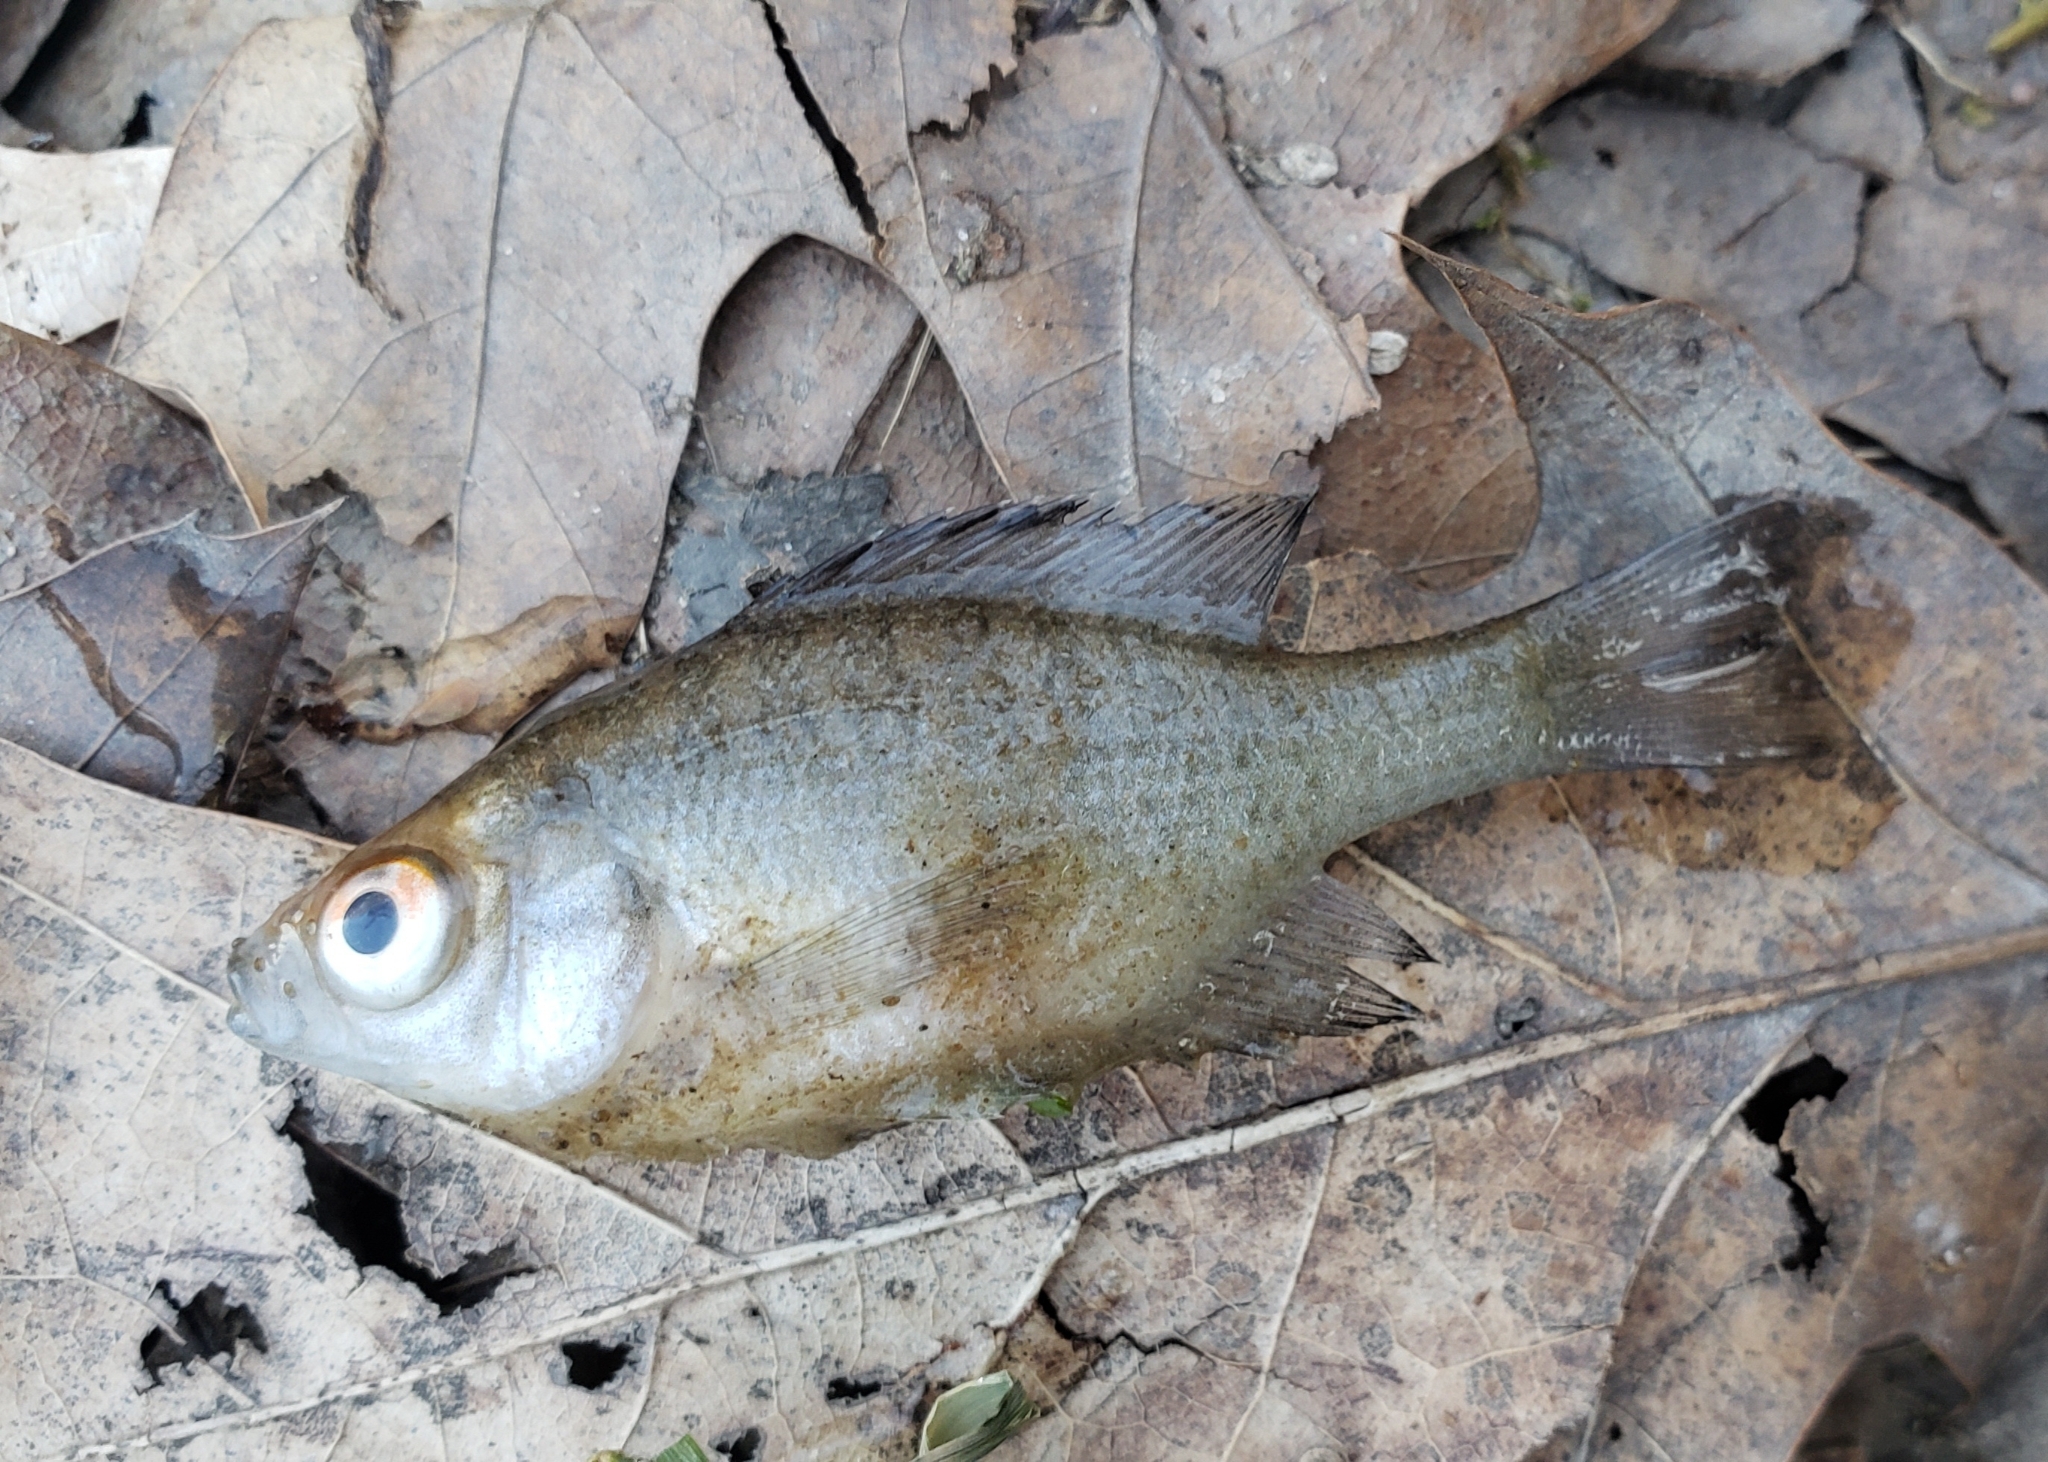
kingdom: Animalia
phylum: Chordata
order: Perciformes
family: Centrarchidae
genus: Lepomis
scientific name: Lepomis macrochirus
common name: Bluegill
